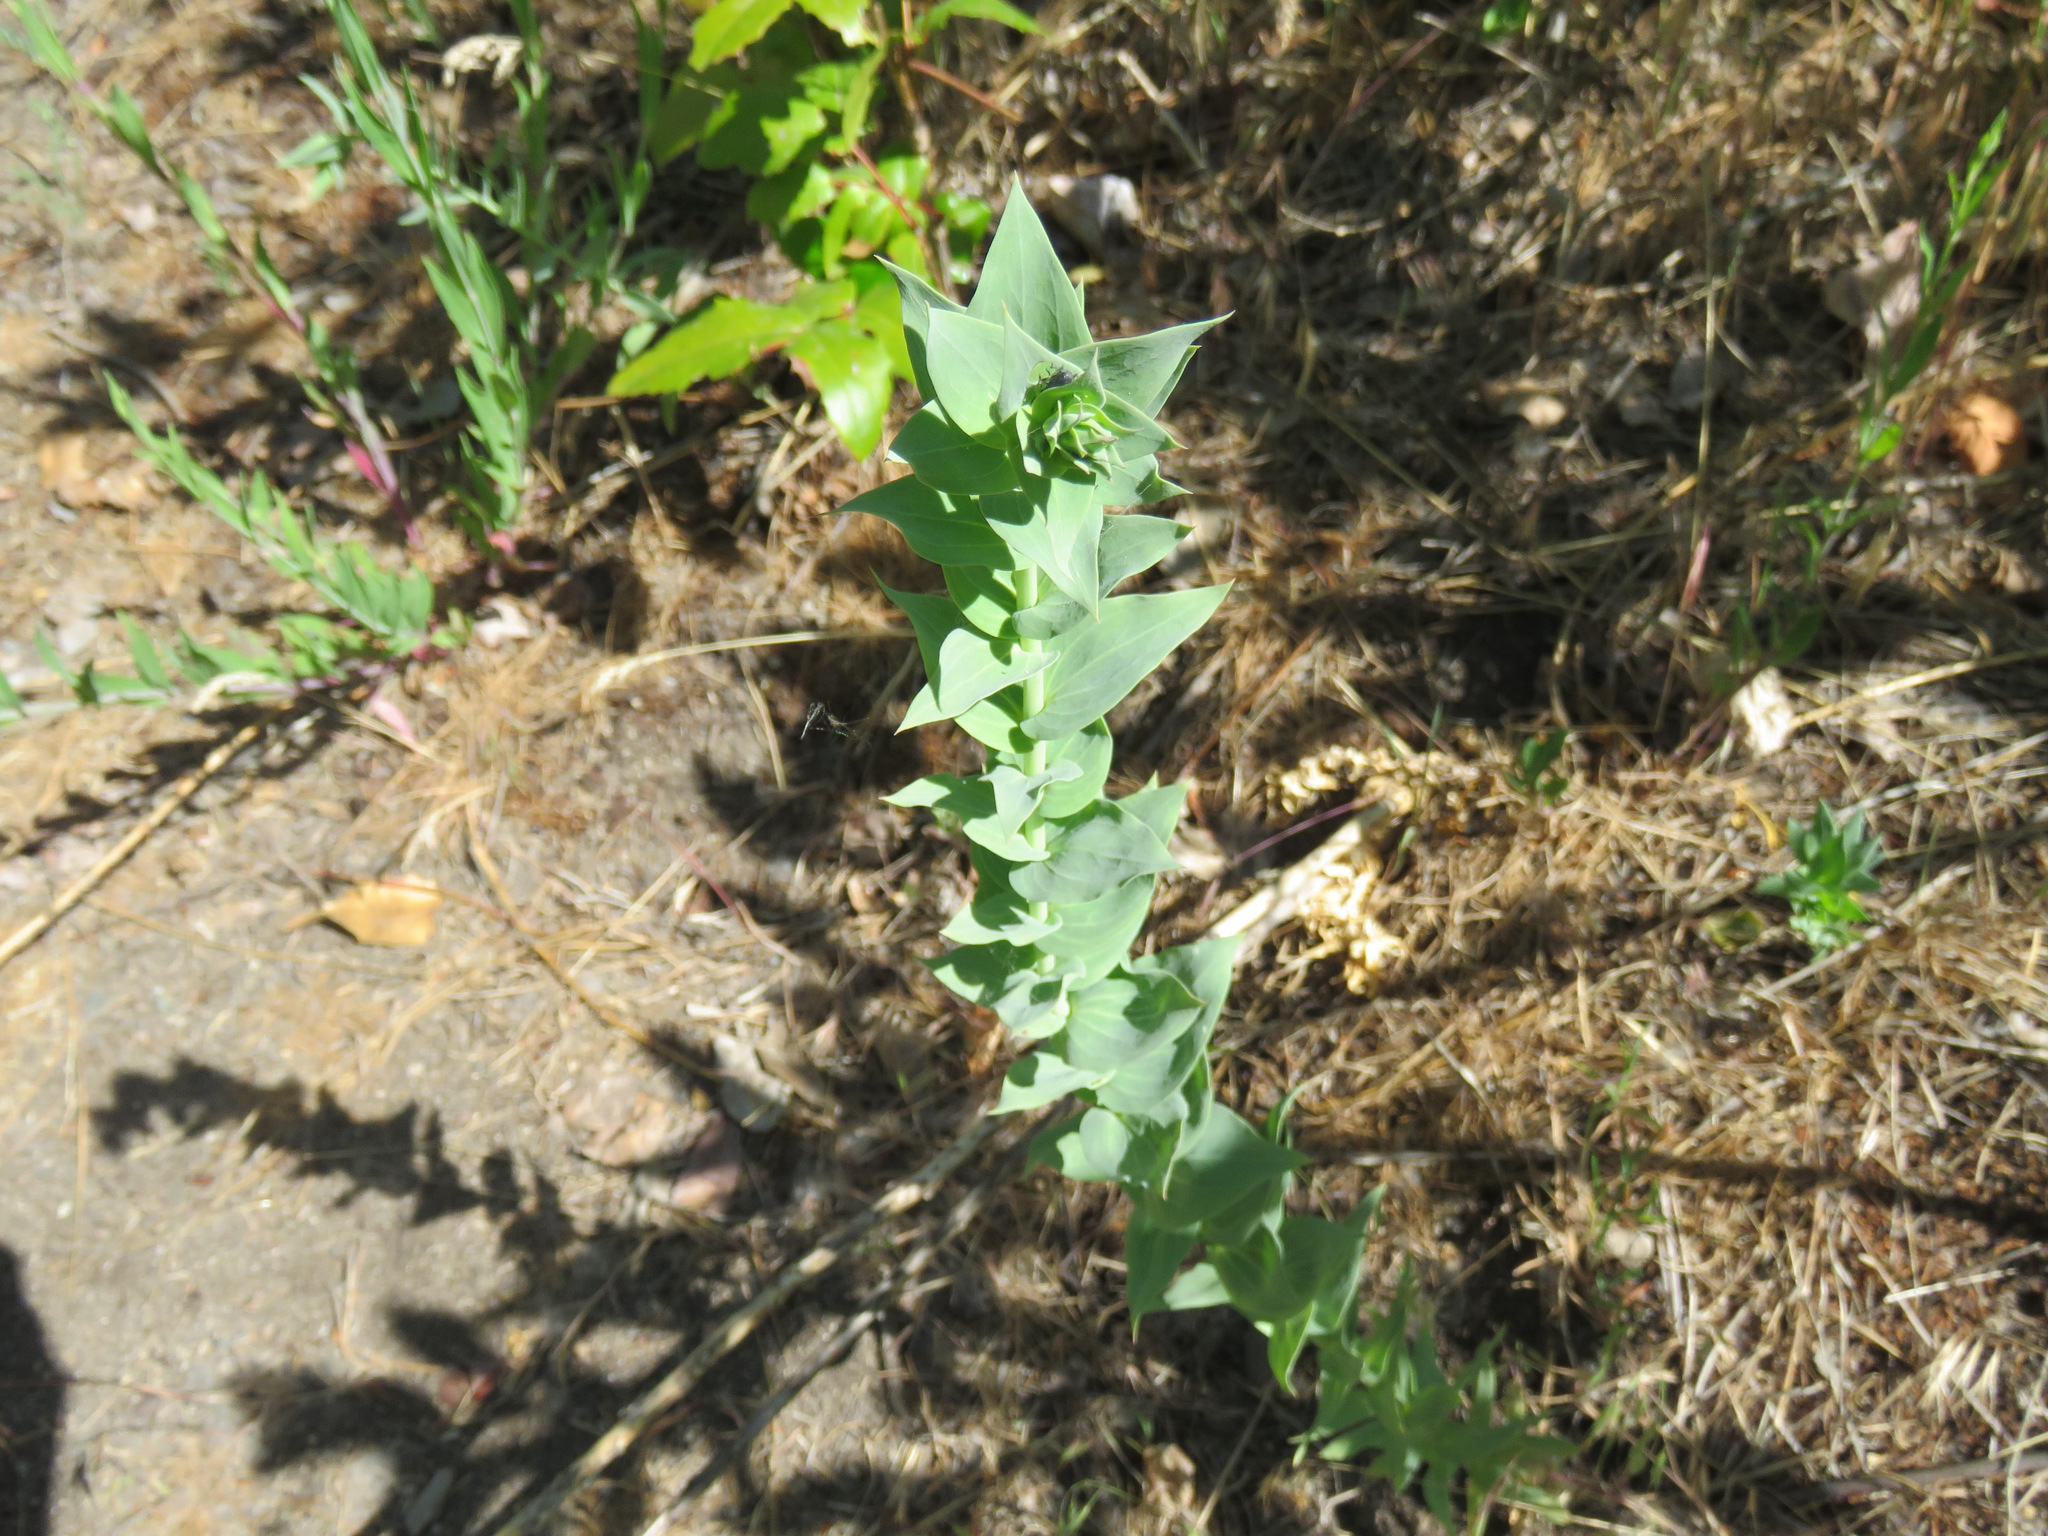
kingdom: Plantae
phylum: Tracheophyta
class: Magnoliopsida
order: Lamiales
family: Plantaginaceae
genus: Linaria
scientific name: Linaria dalmatica
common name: Dalmatian toadflax
